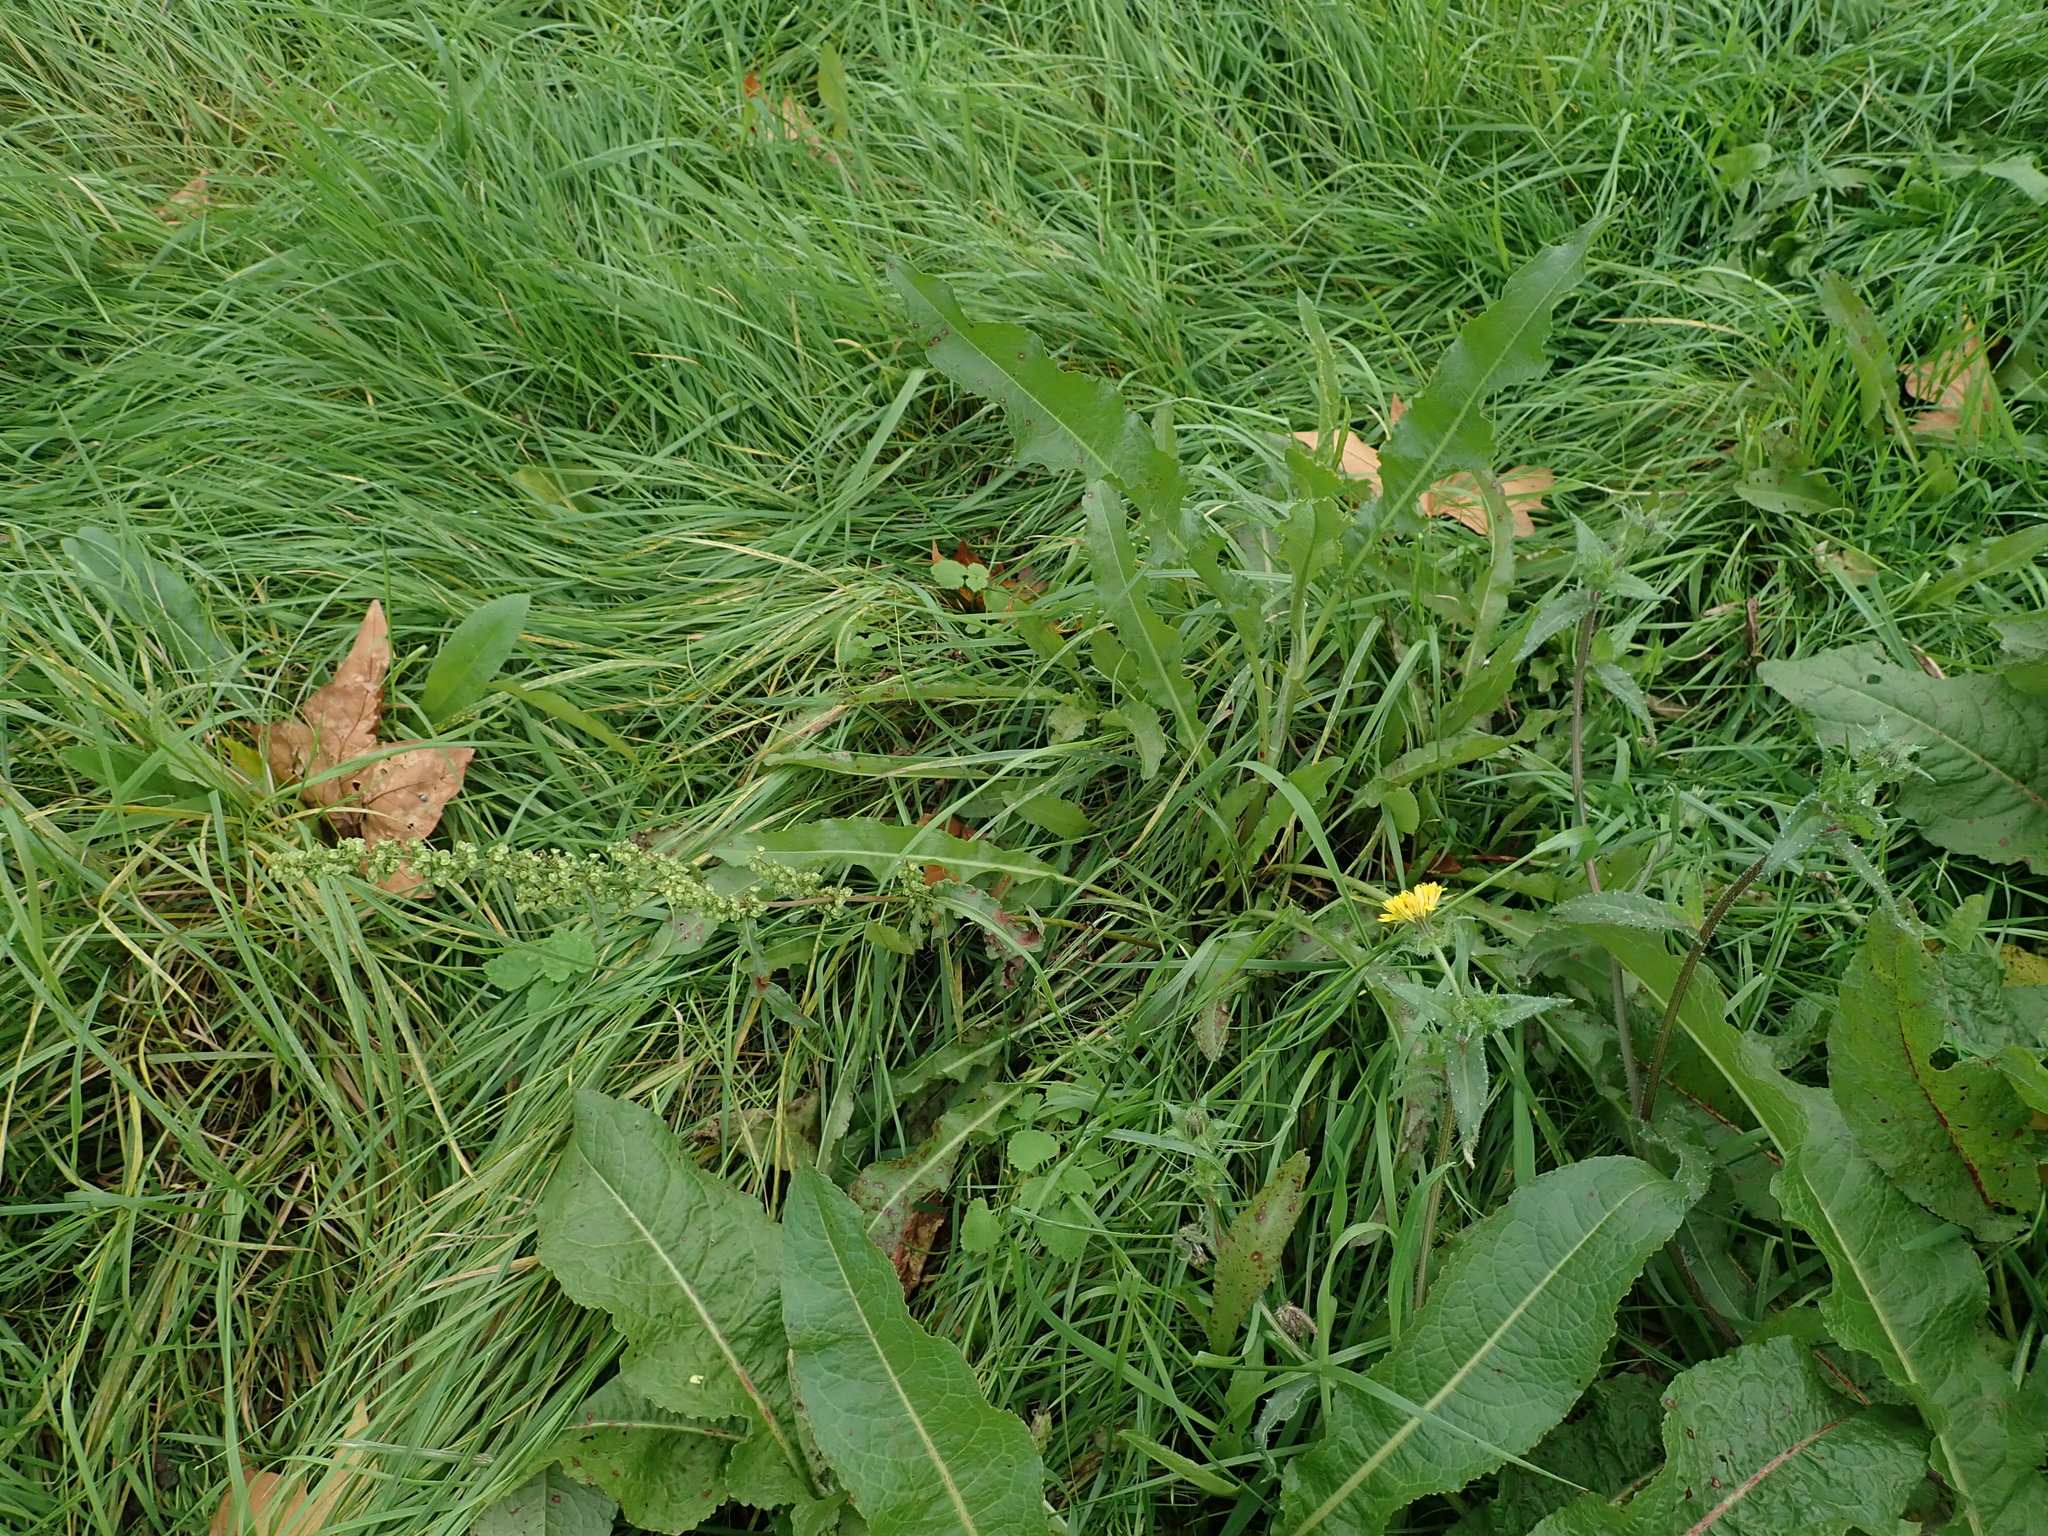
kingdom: Plantae
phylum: Tracheophyta
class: Magnoliopsida
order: Caryophyllales
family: Polygonaceae
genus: Rumex
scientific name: Rumex crispus
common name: Curled dock
